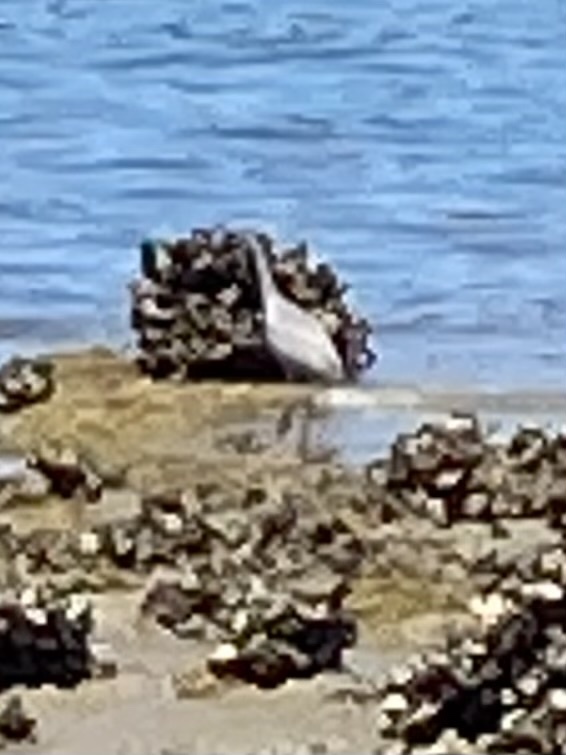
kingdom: Animalia
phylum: Chordata
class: Aves
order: Pelecaniformes
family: Ardeidae
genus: Egretta
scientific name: Egretta novaehollandiae
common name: White-faced heron
